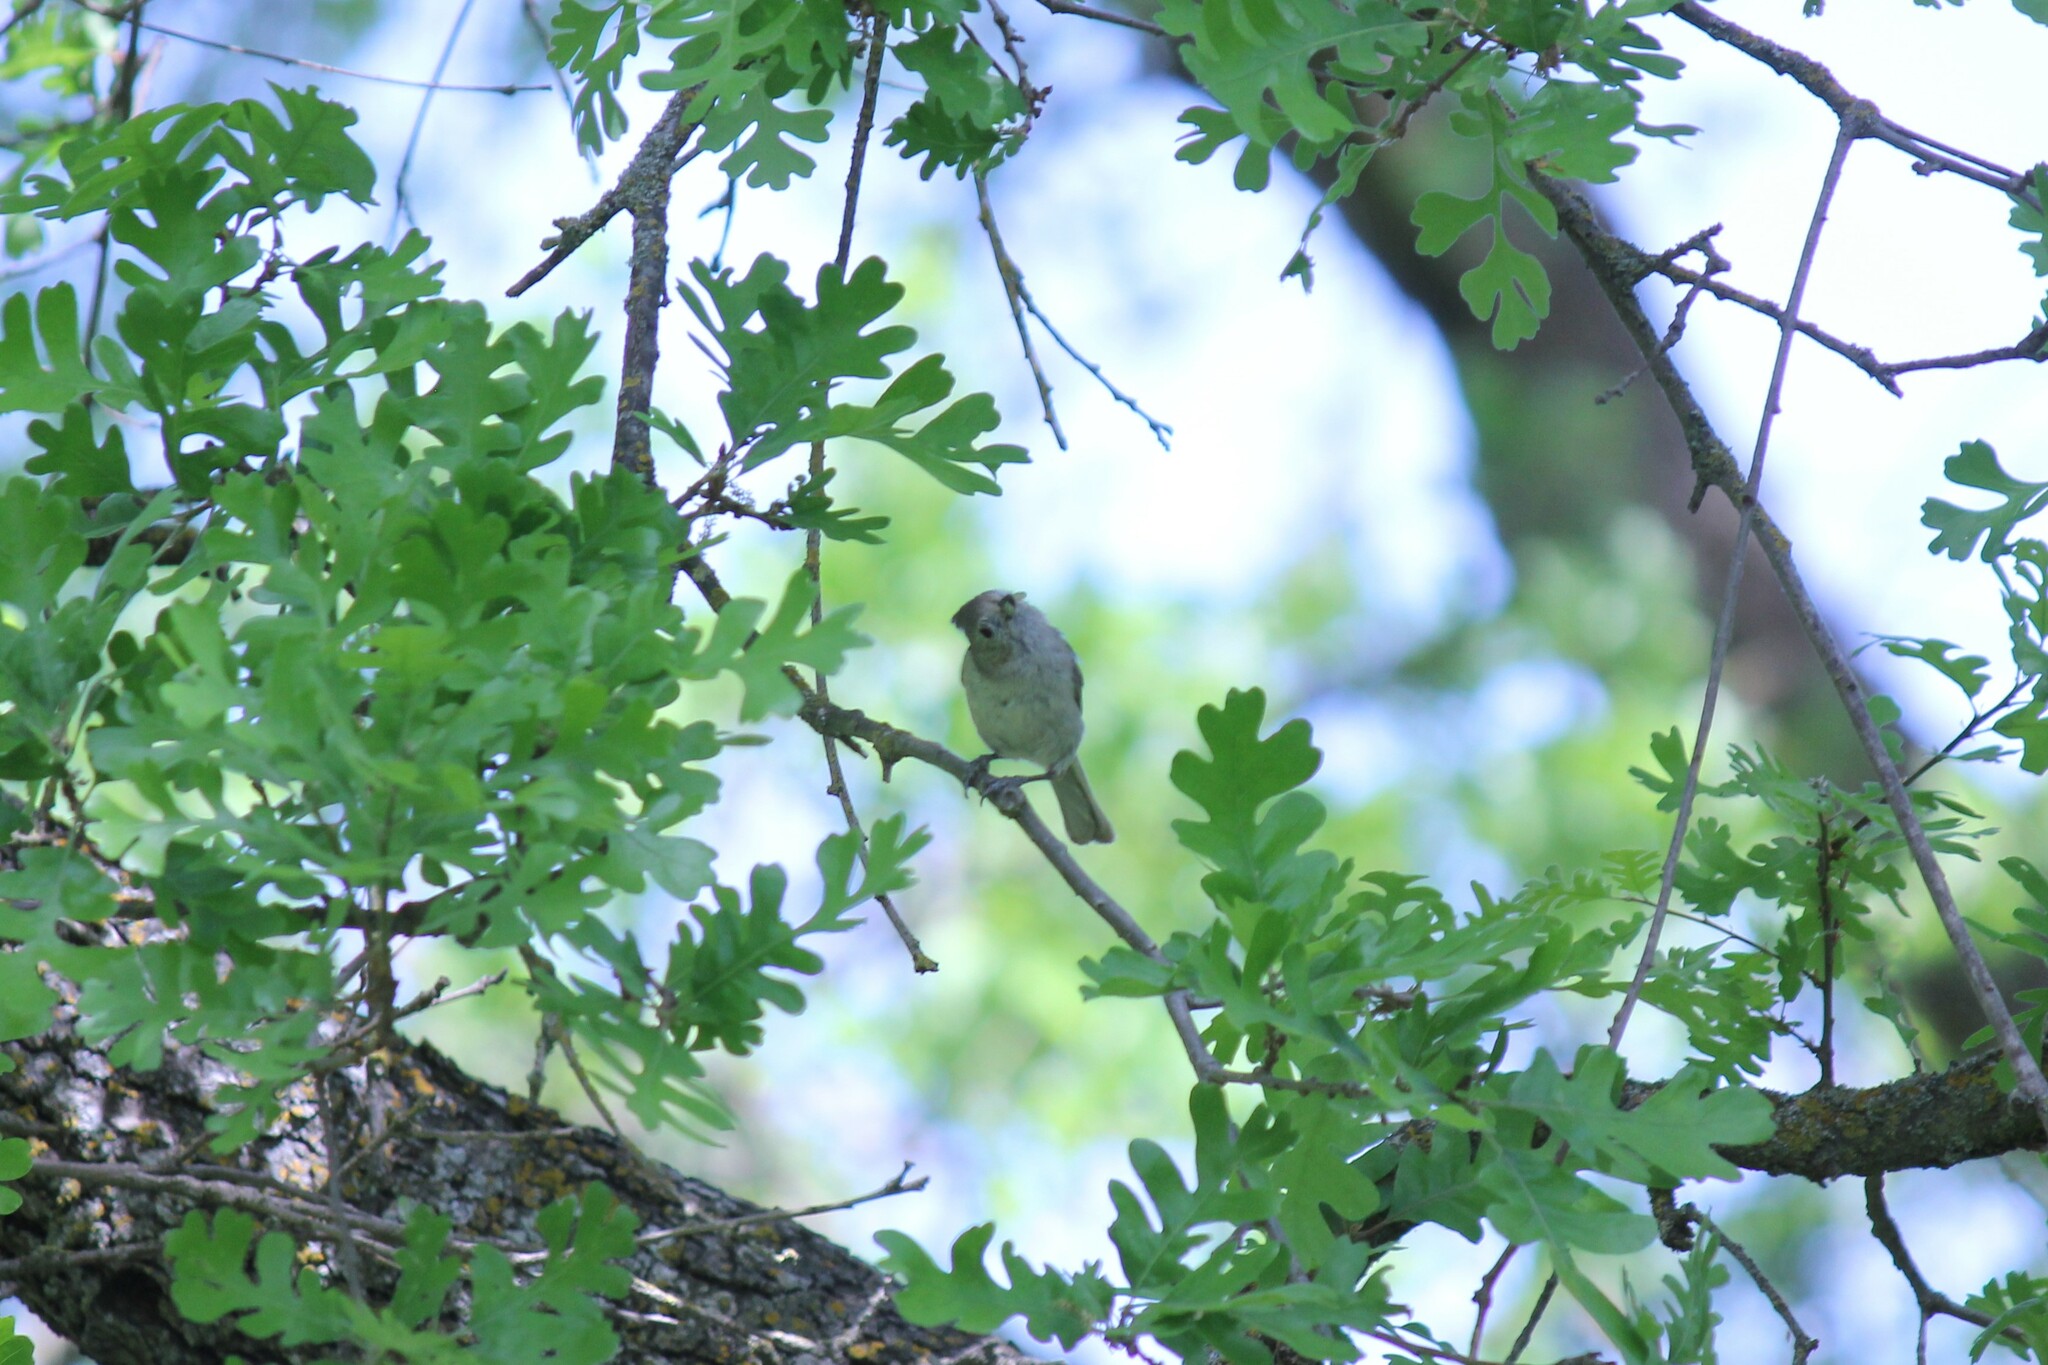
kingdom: Animalia
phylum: Chordata
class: Aves
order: Passeriformes
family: Paridae
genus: Baeolophus
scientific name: Baeolophus inornatus
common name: Oak titmouse
